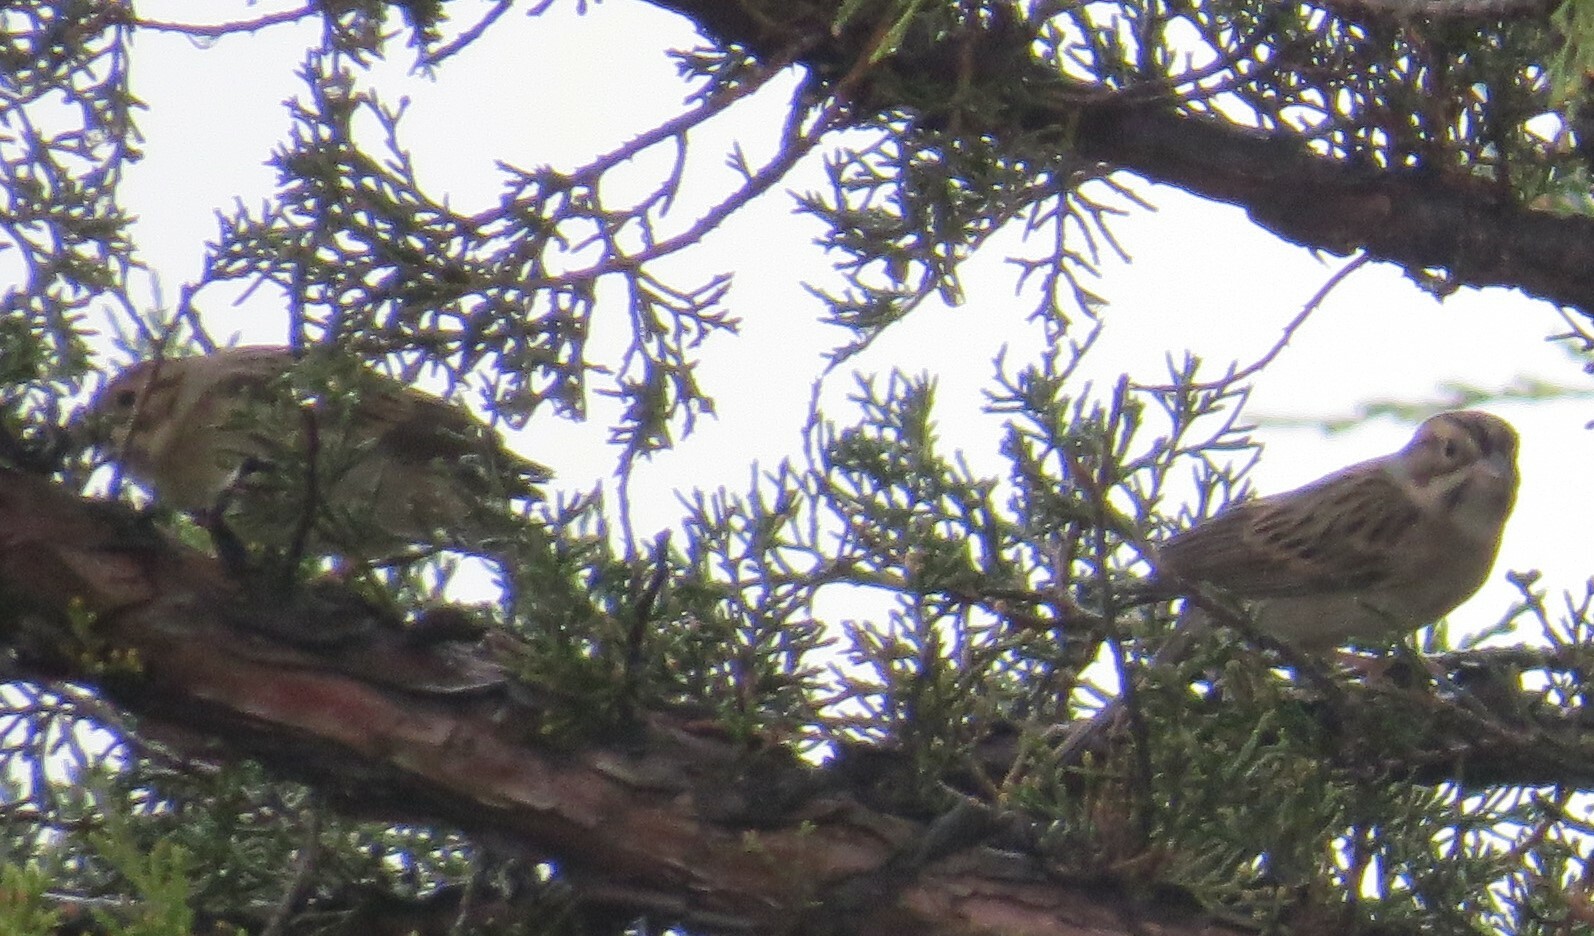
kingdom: Animalia
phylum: Chordata
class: Aves
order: Passeriformes
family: Passerellidae
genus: Spizella
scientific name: Spizella pallida
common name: Clay-colored sparrow
